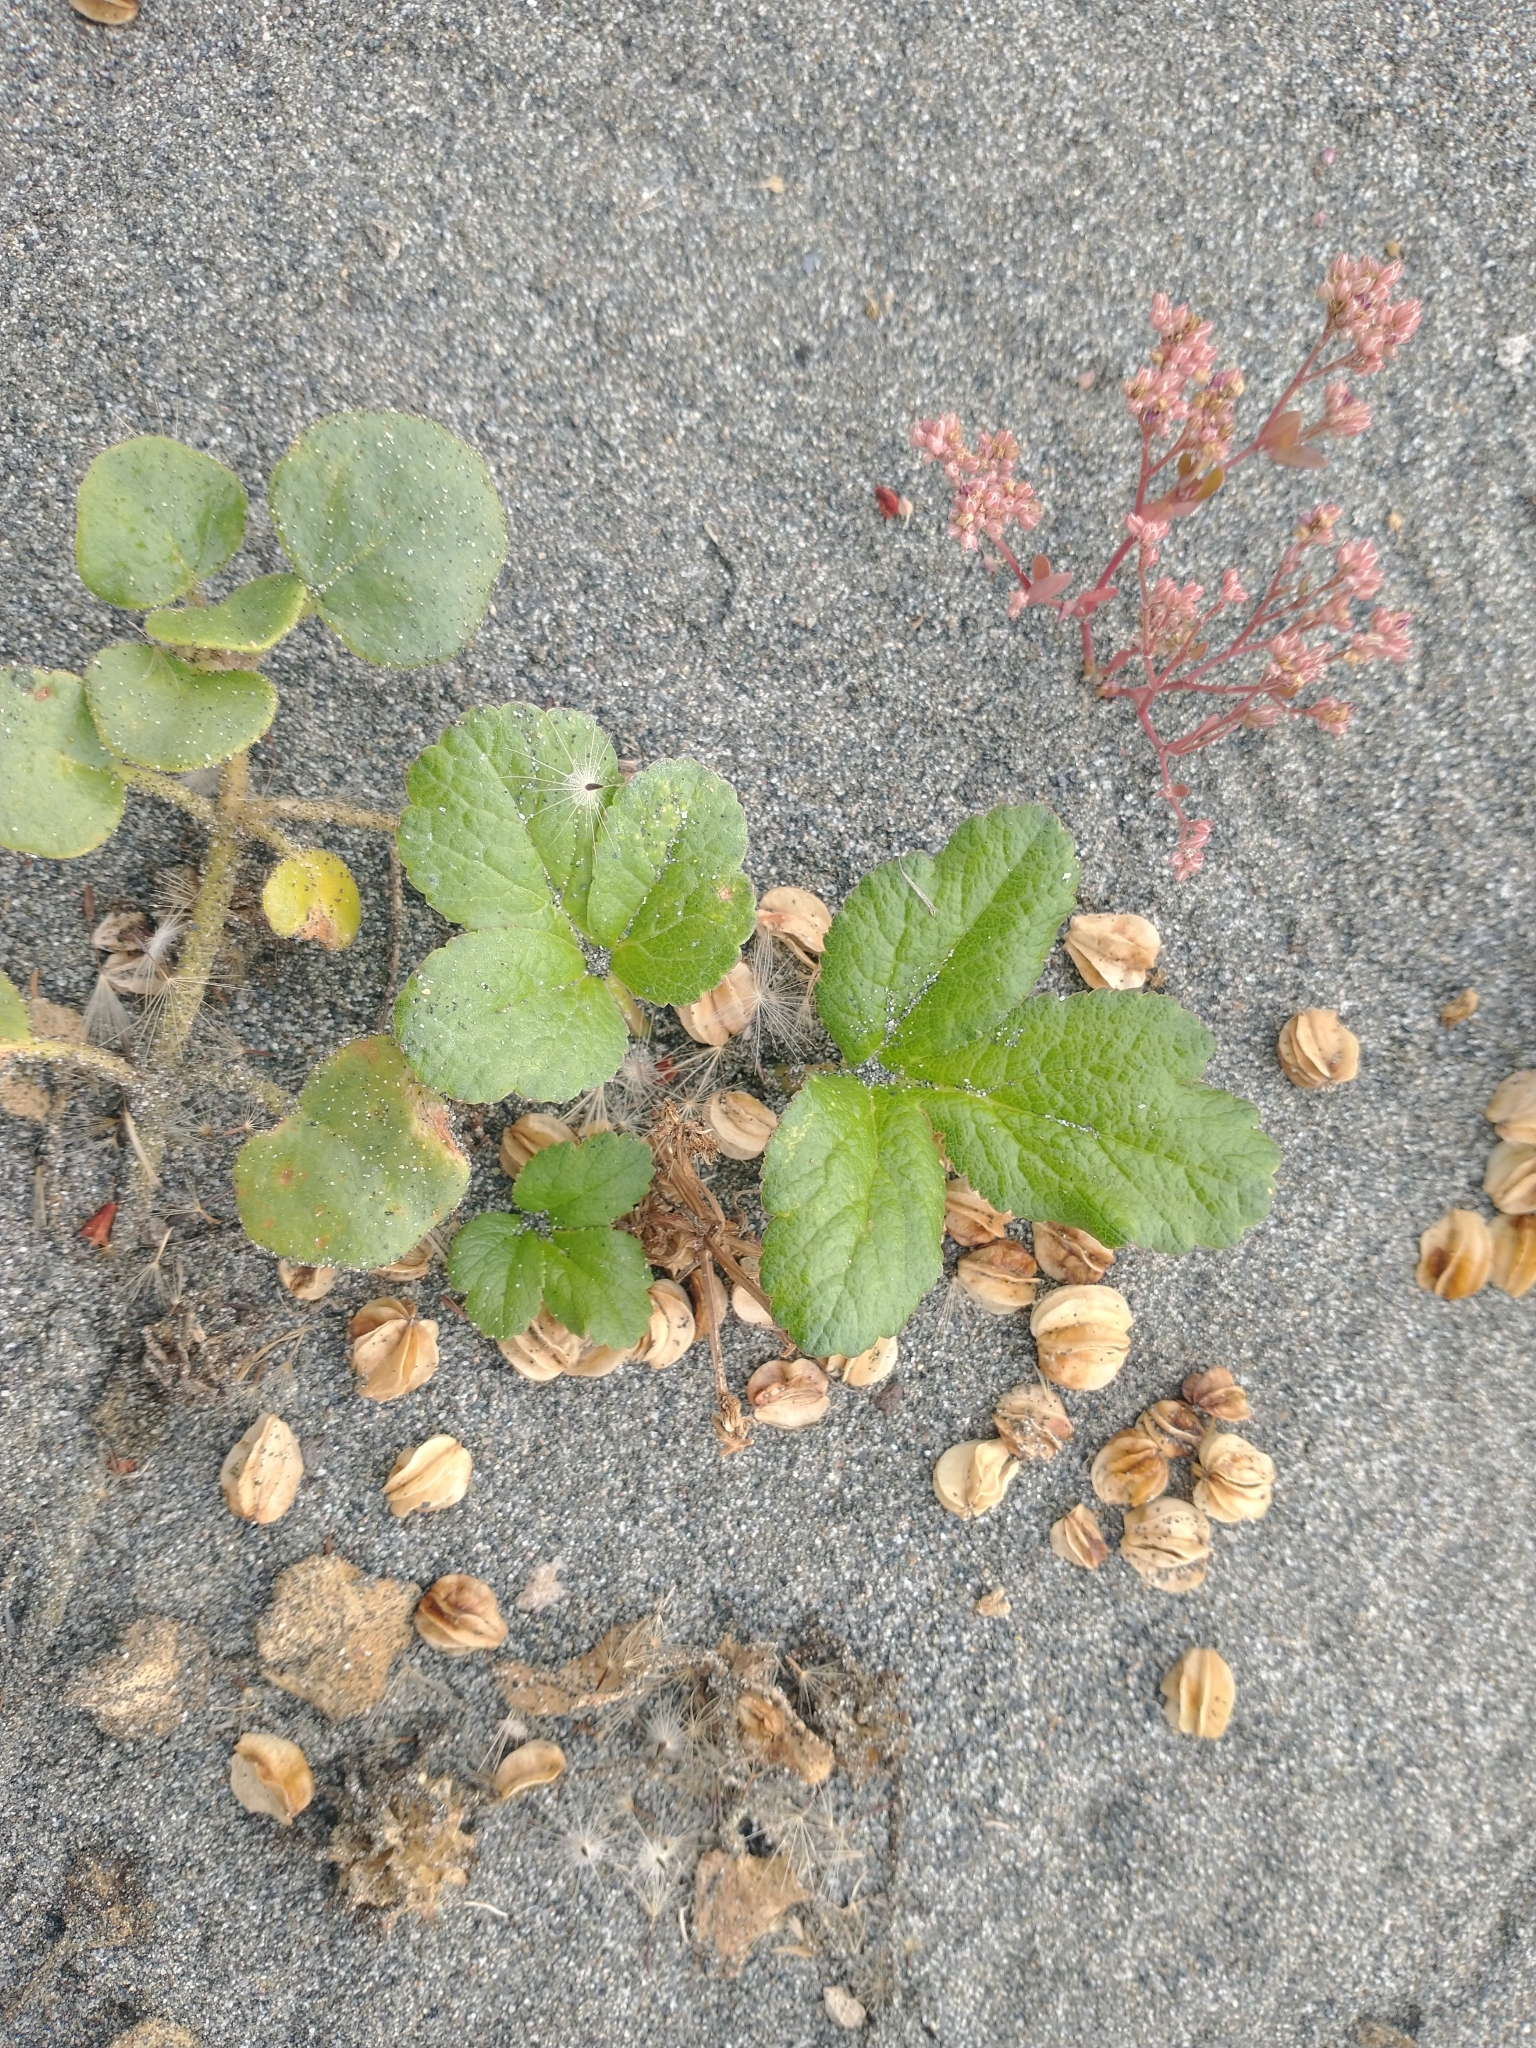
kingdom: Plantae
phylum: Tracheophyta
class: Magnoliopsida
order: Apiales
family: Apiaceae
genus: Glehnia
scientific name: Glehnia littoralis
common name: Beach silvertop
